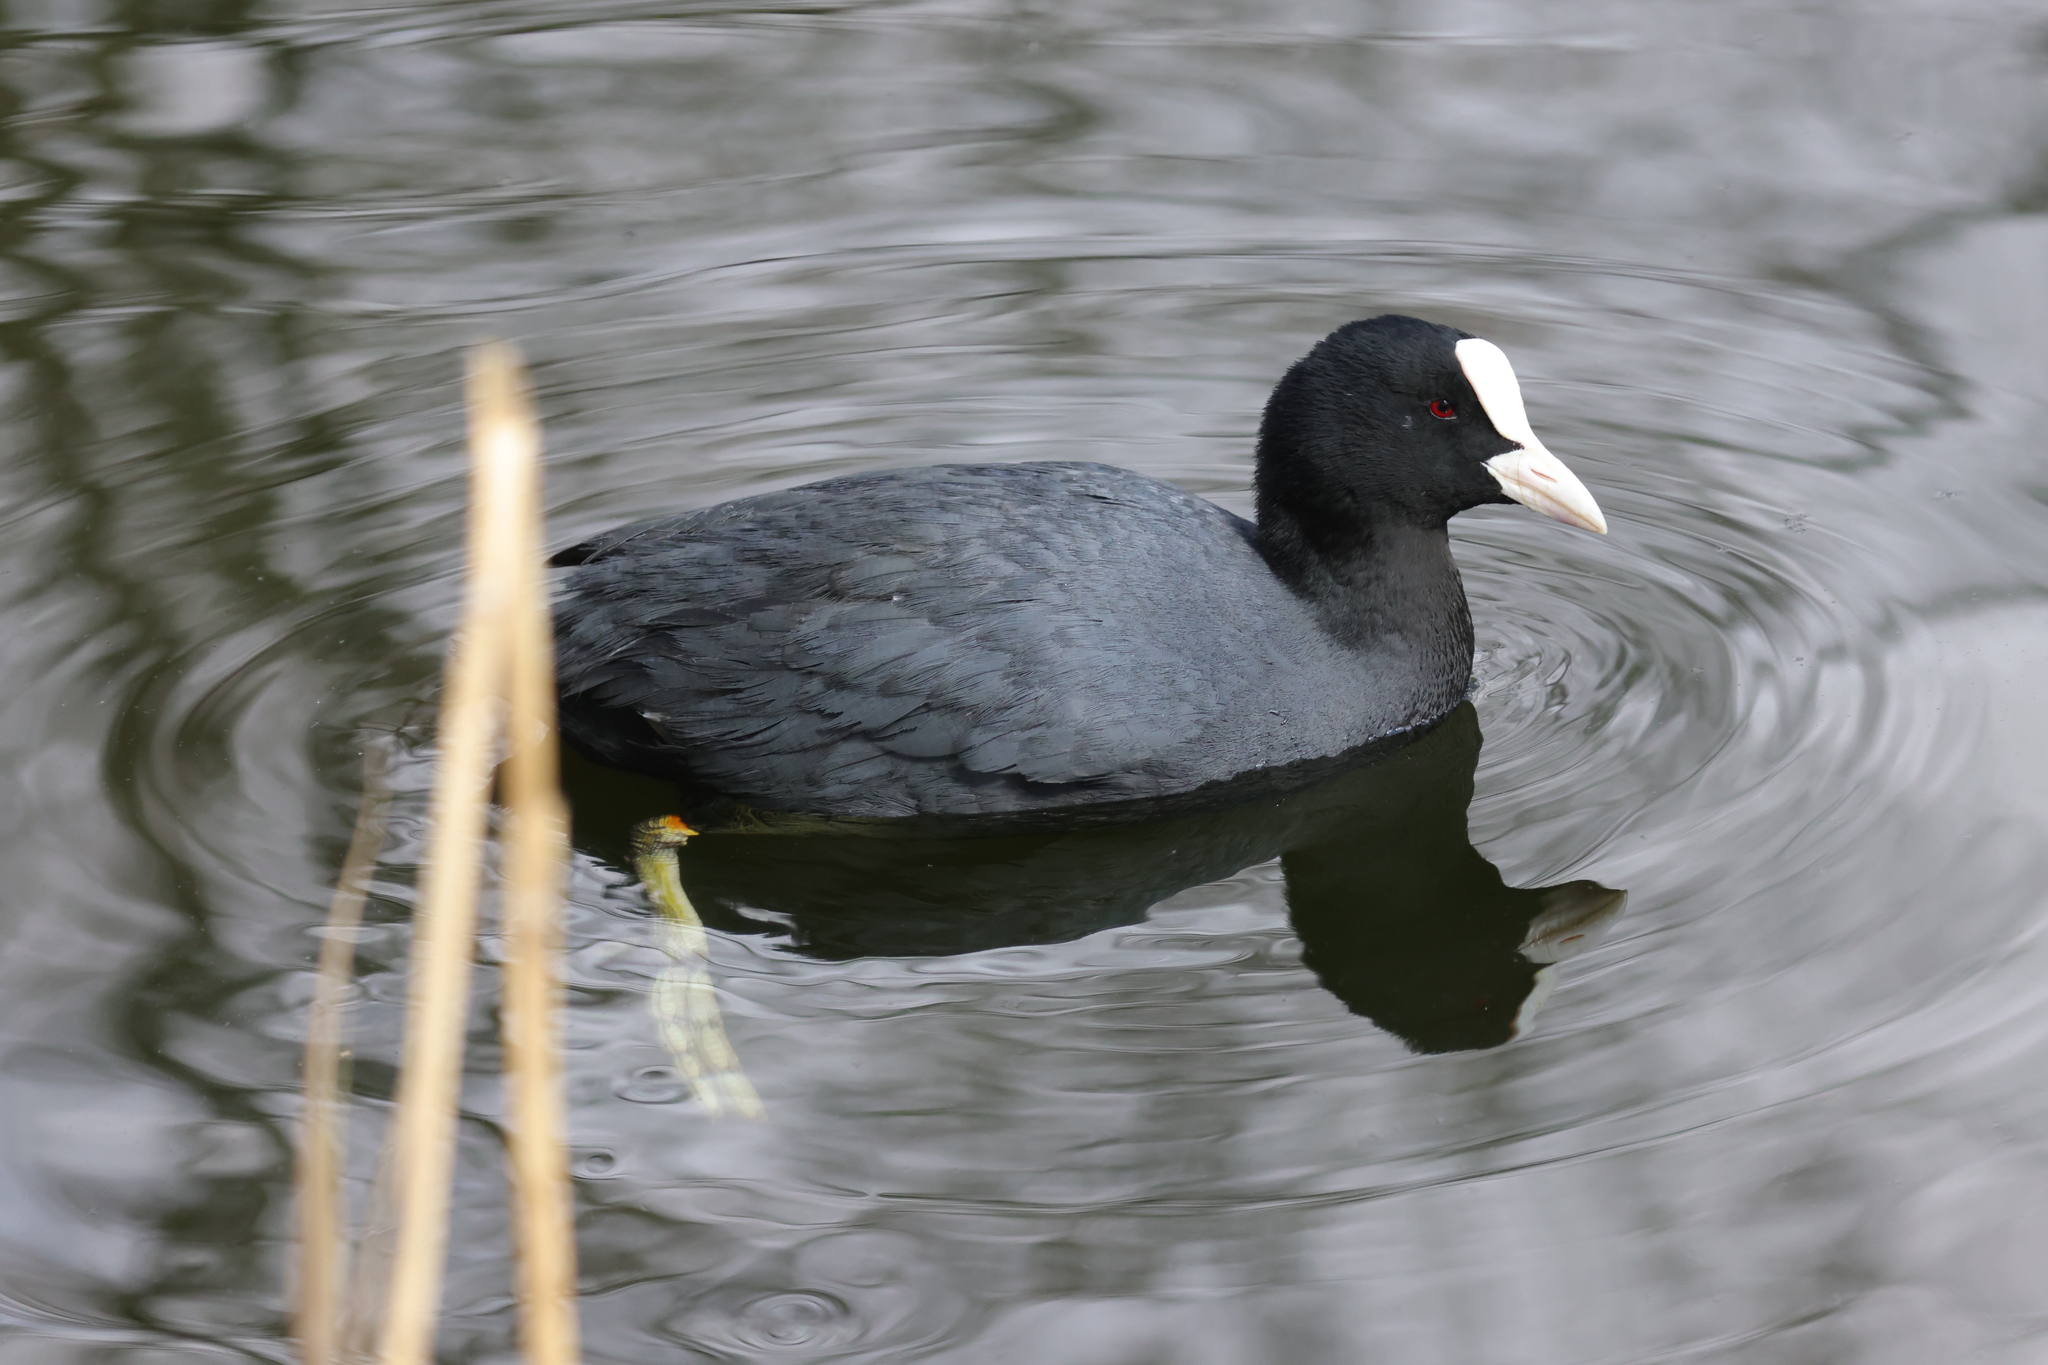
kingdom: Animalia
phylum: Chordata
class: Aves
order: Gruiformes
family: Rallidae
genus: Fulica
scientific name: Fulica atra
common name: Eurasian coot
